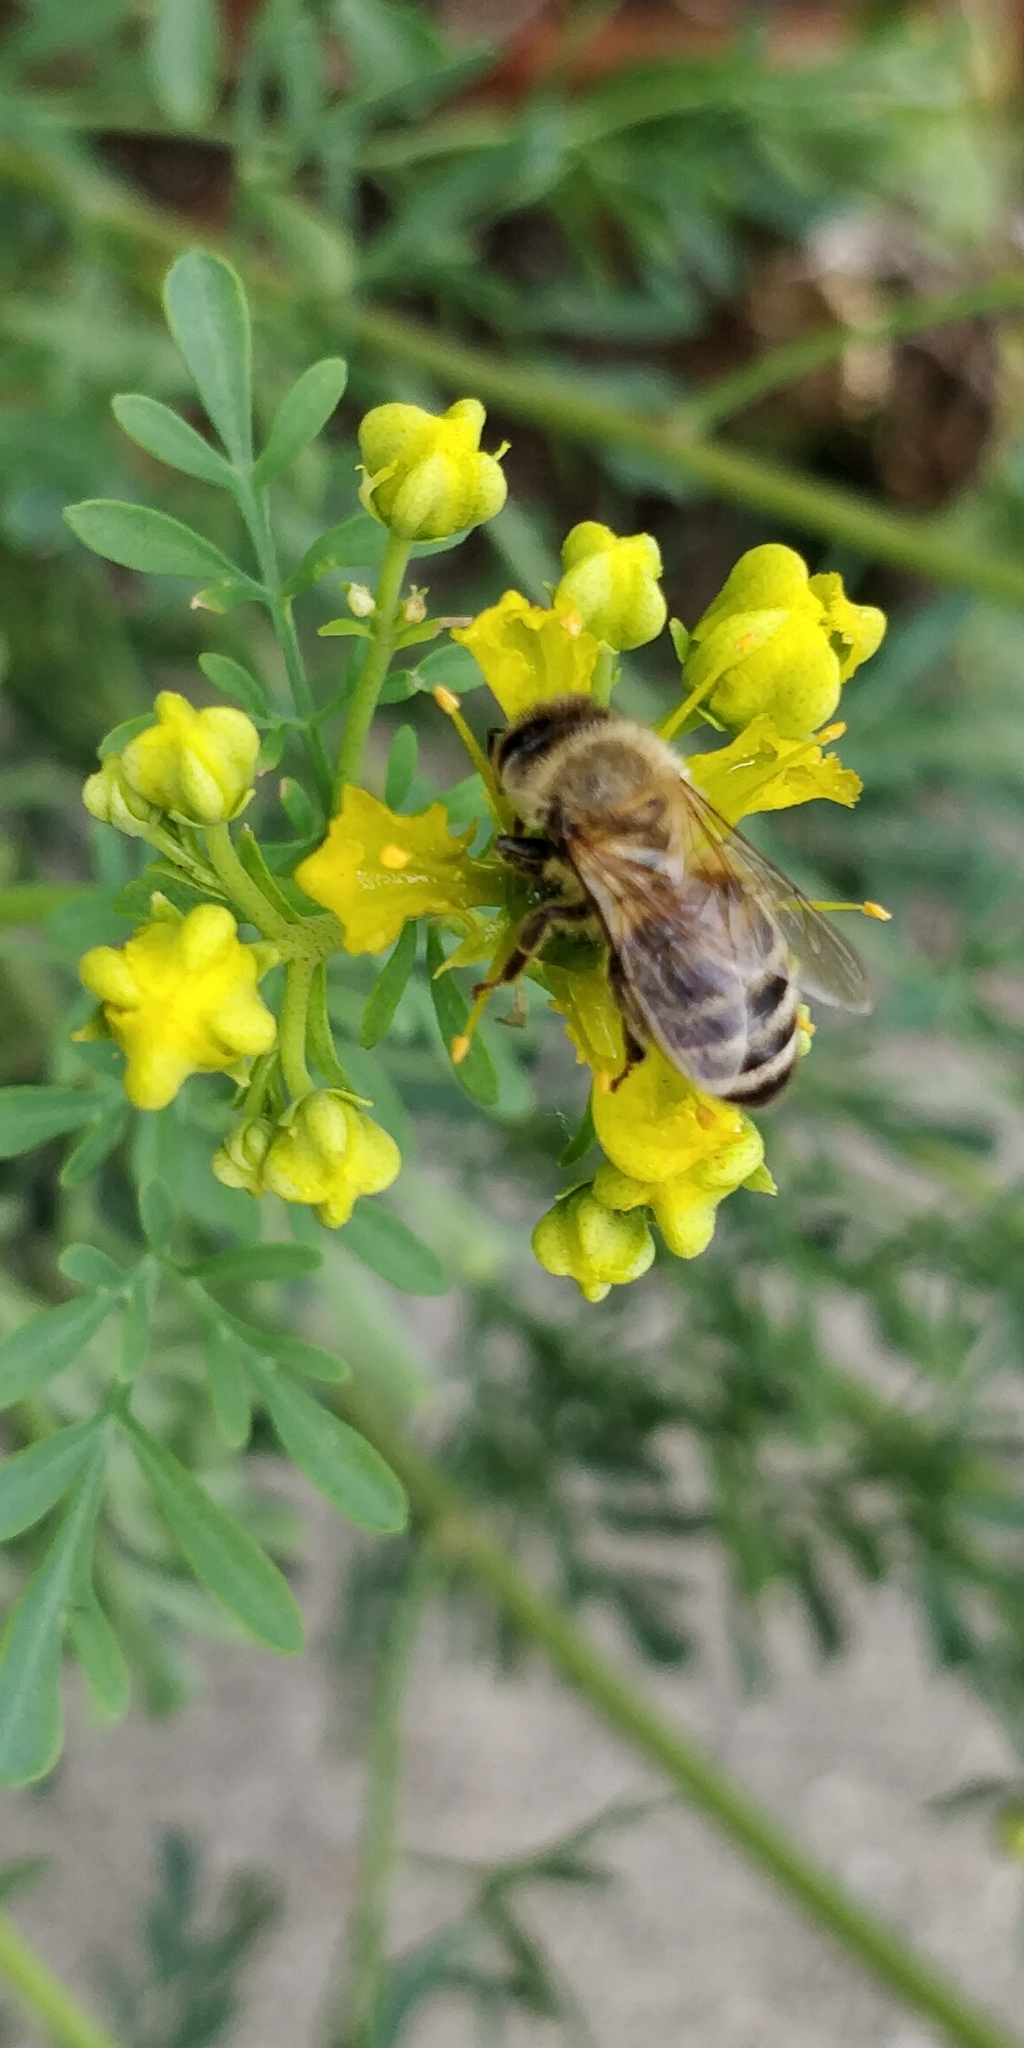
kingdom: Animalia
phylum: Arthropoda
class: Insecta
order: Hymenoptera
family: Apidae
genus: Apis
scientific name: Apis mellifera
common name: Honey bee
